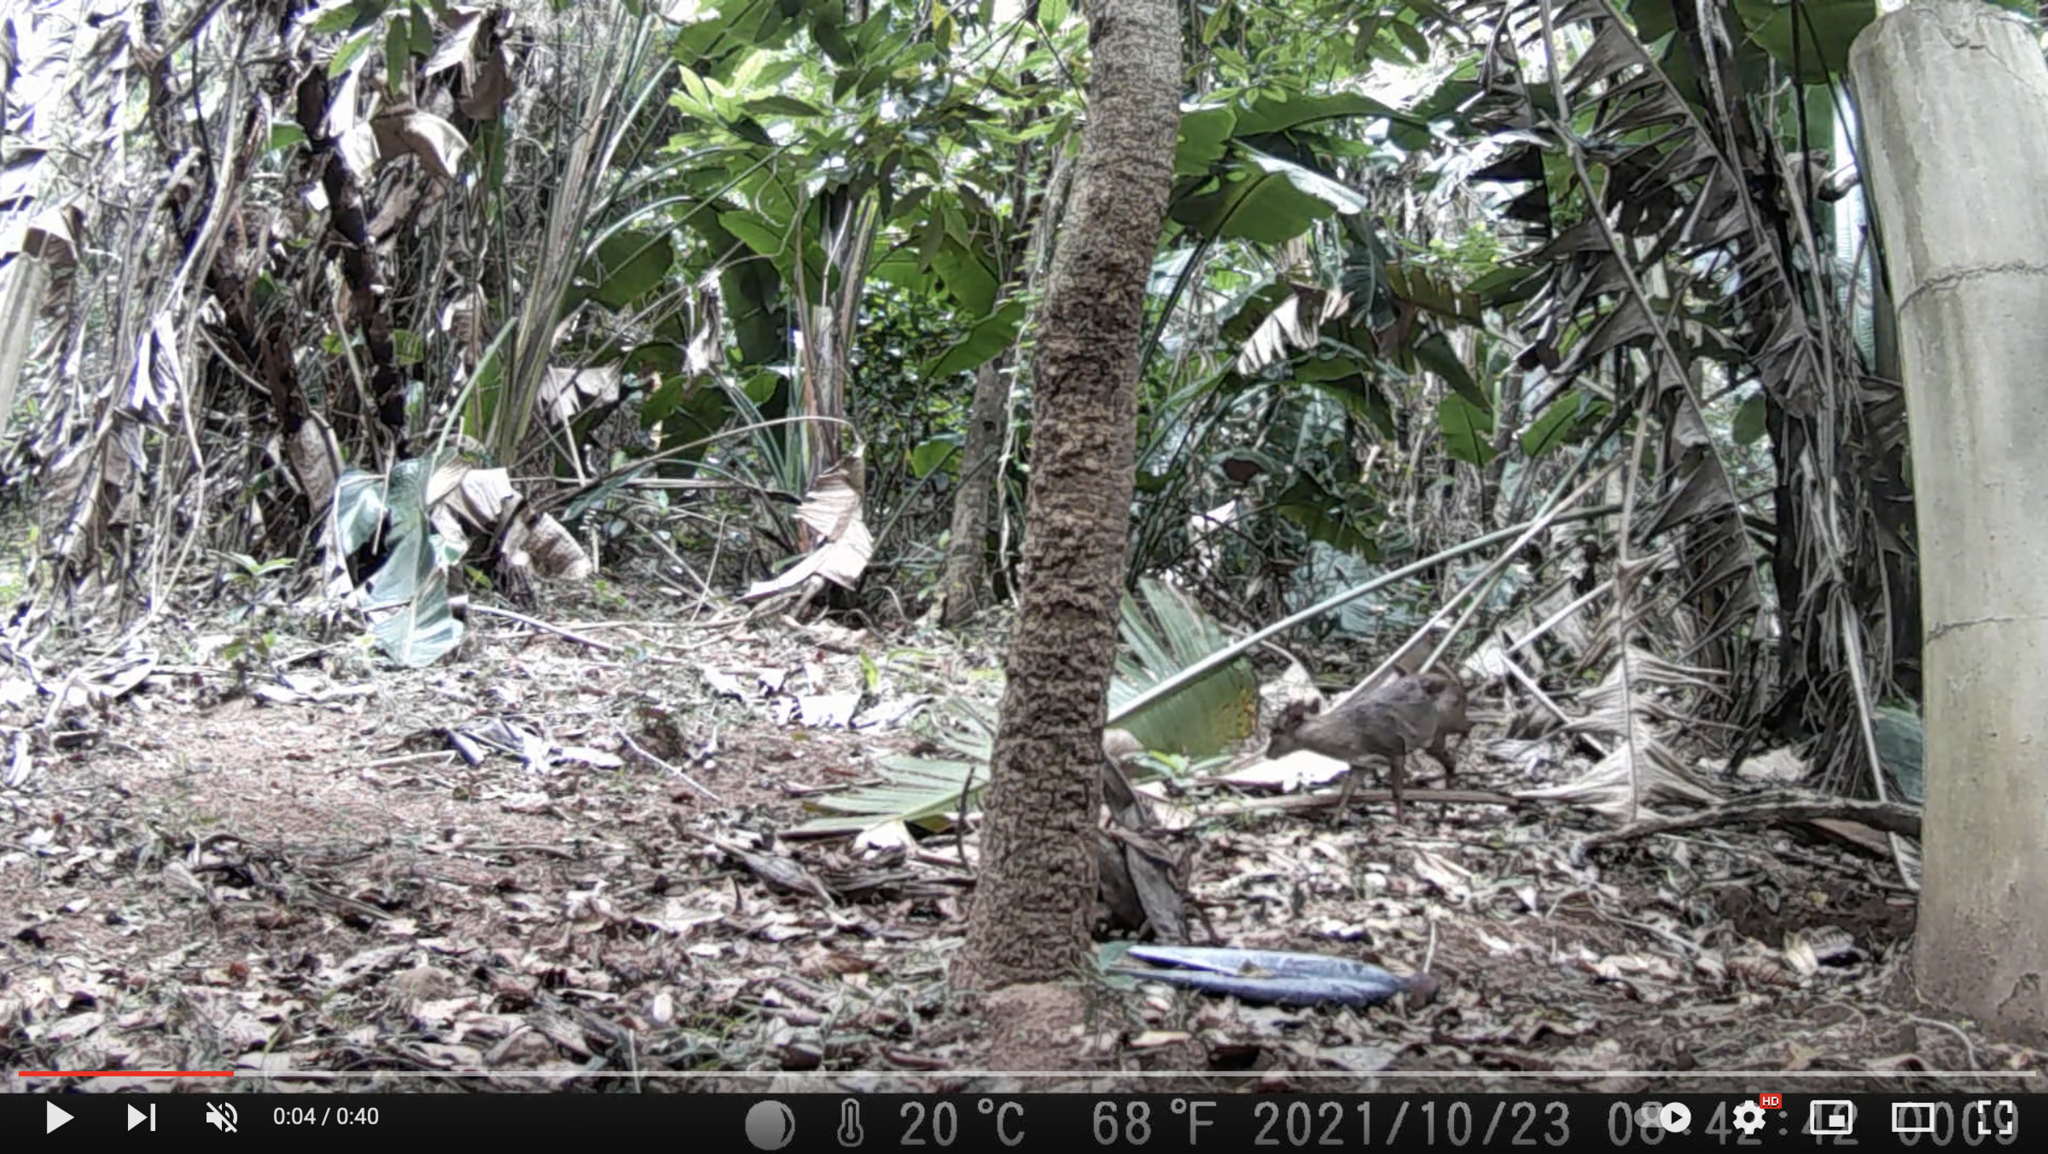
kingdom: Animalia
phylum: Chordata
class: Mammalia
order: Artiodactyla
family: Bovidae
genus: Philantomba
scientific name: Philantomba monticola
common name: Blue duiker
